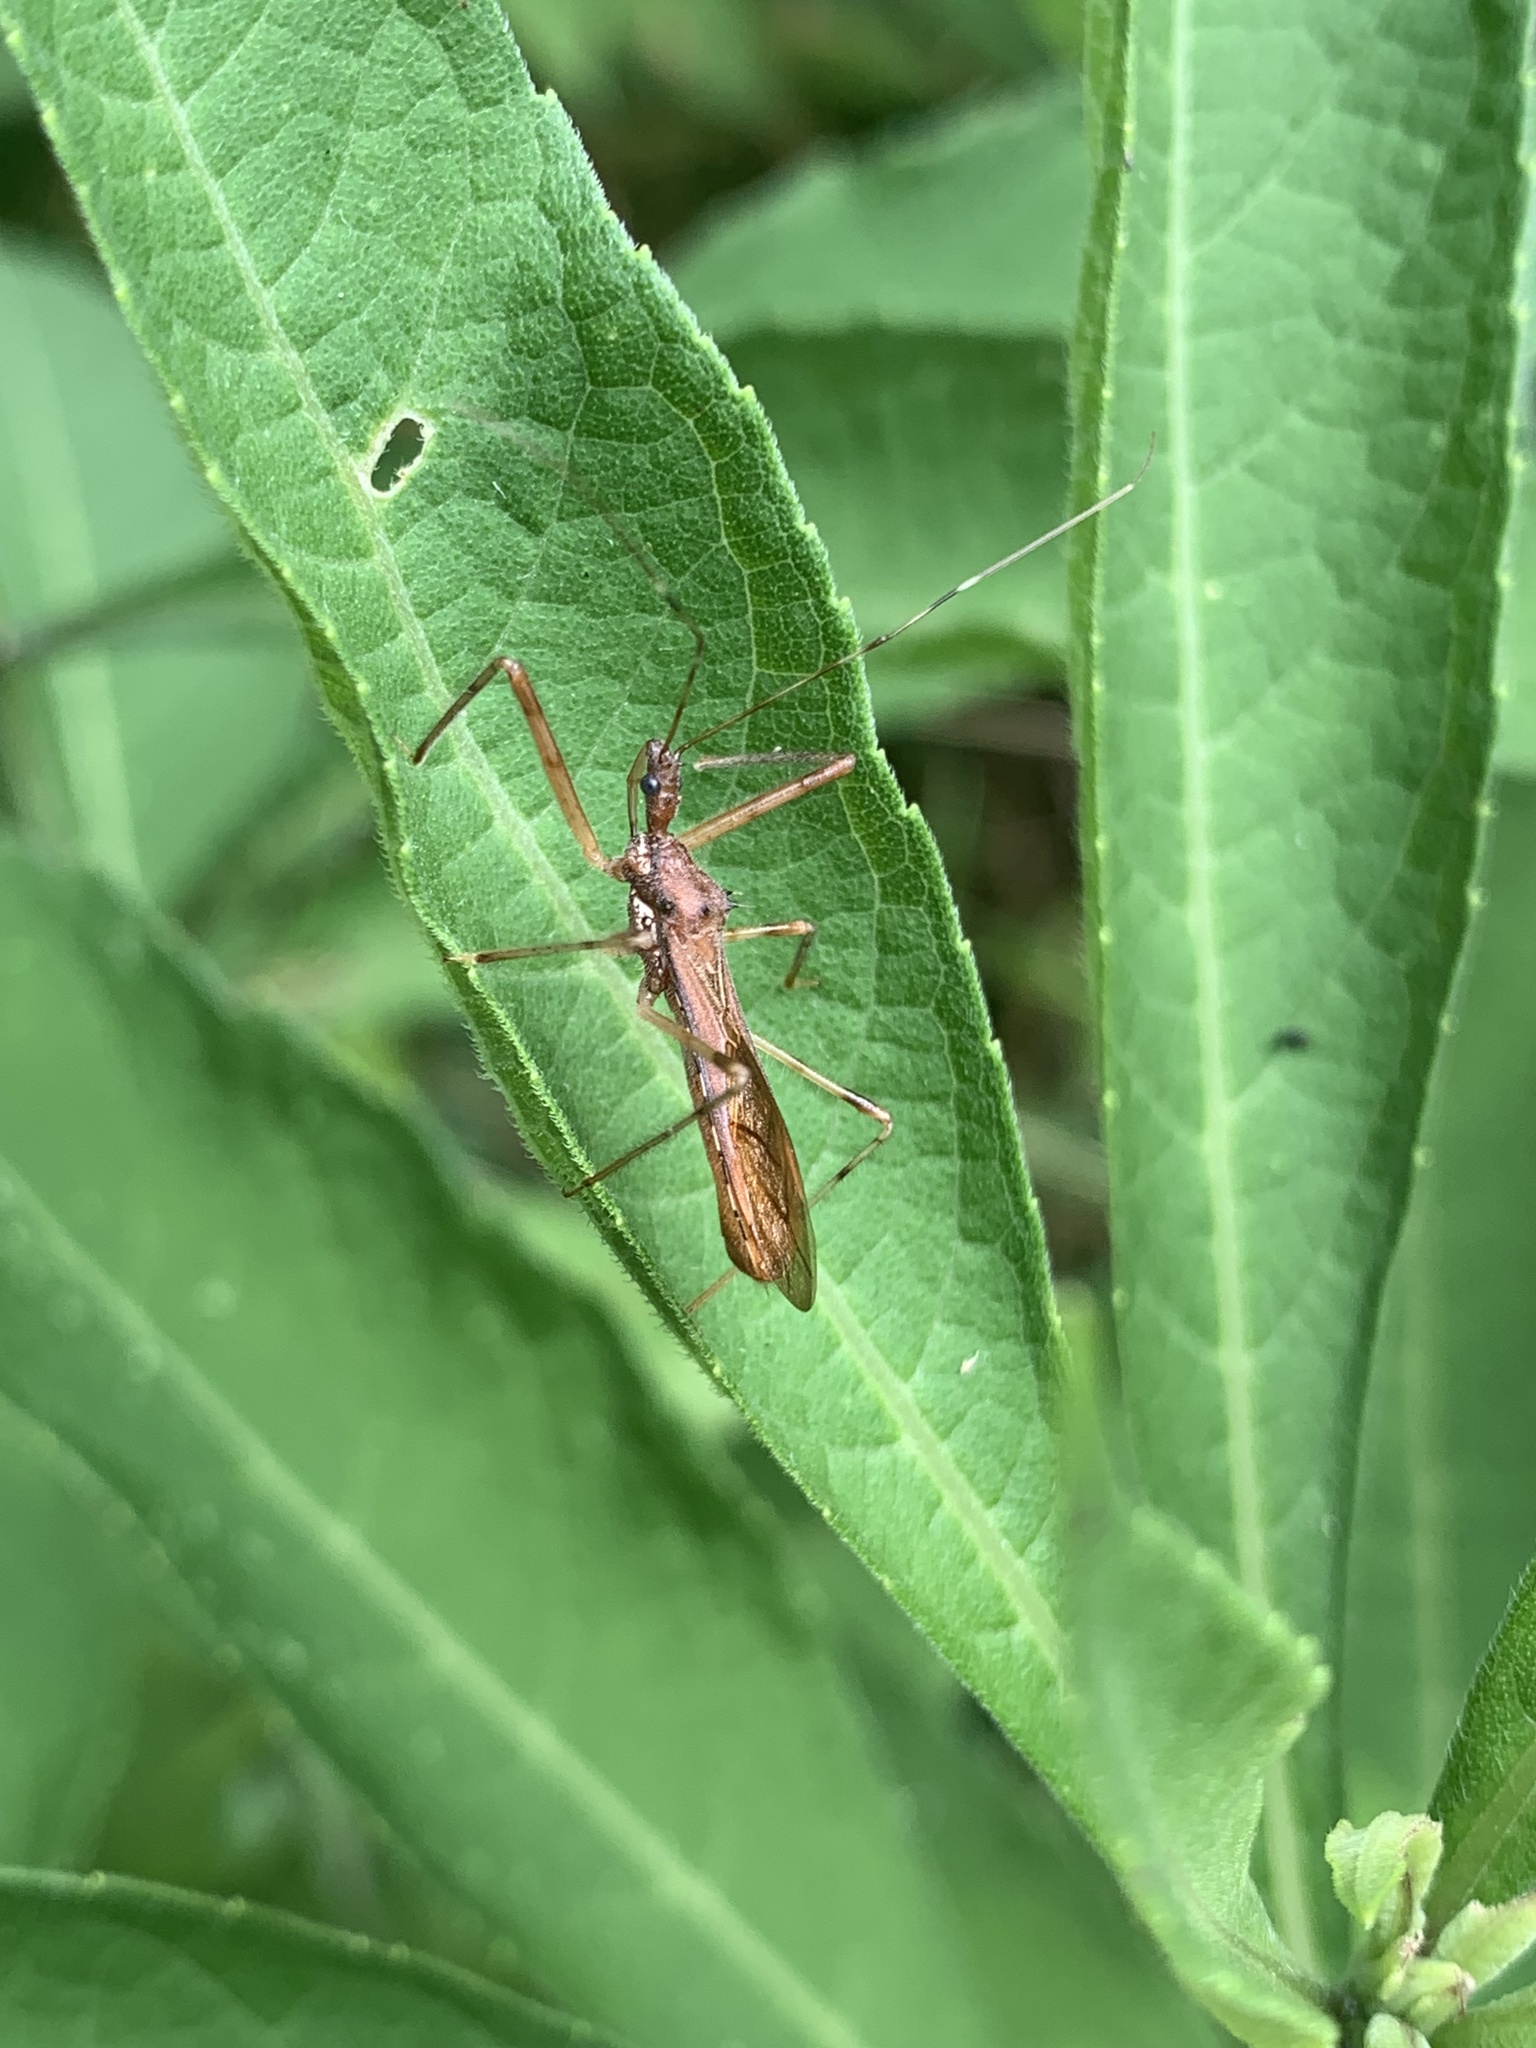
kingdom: Animalia
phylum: Arthropoda
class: Insecta
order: Hemiptera
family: Reduviidae
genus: Rocconota
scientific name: Rocconota annulicornis
